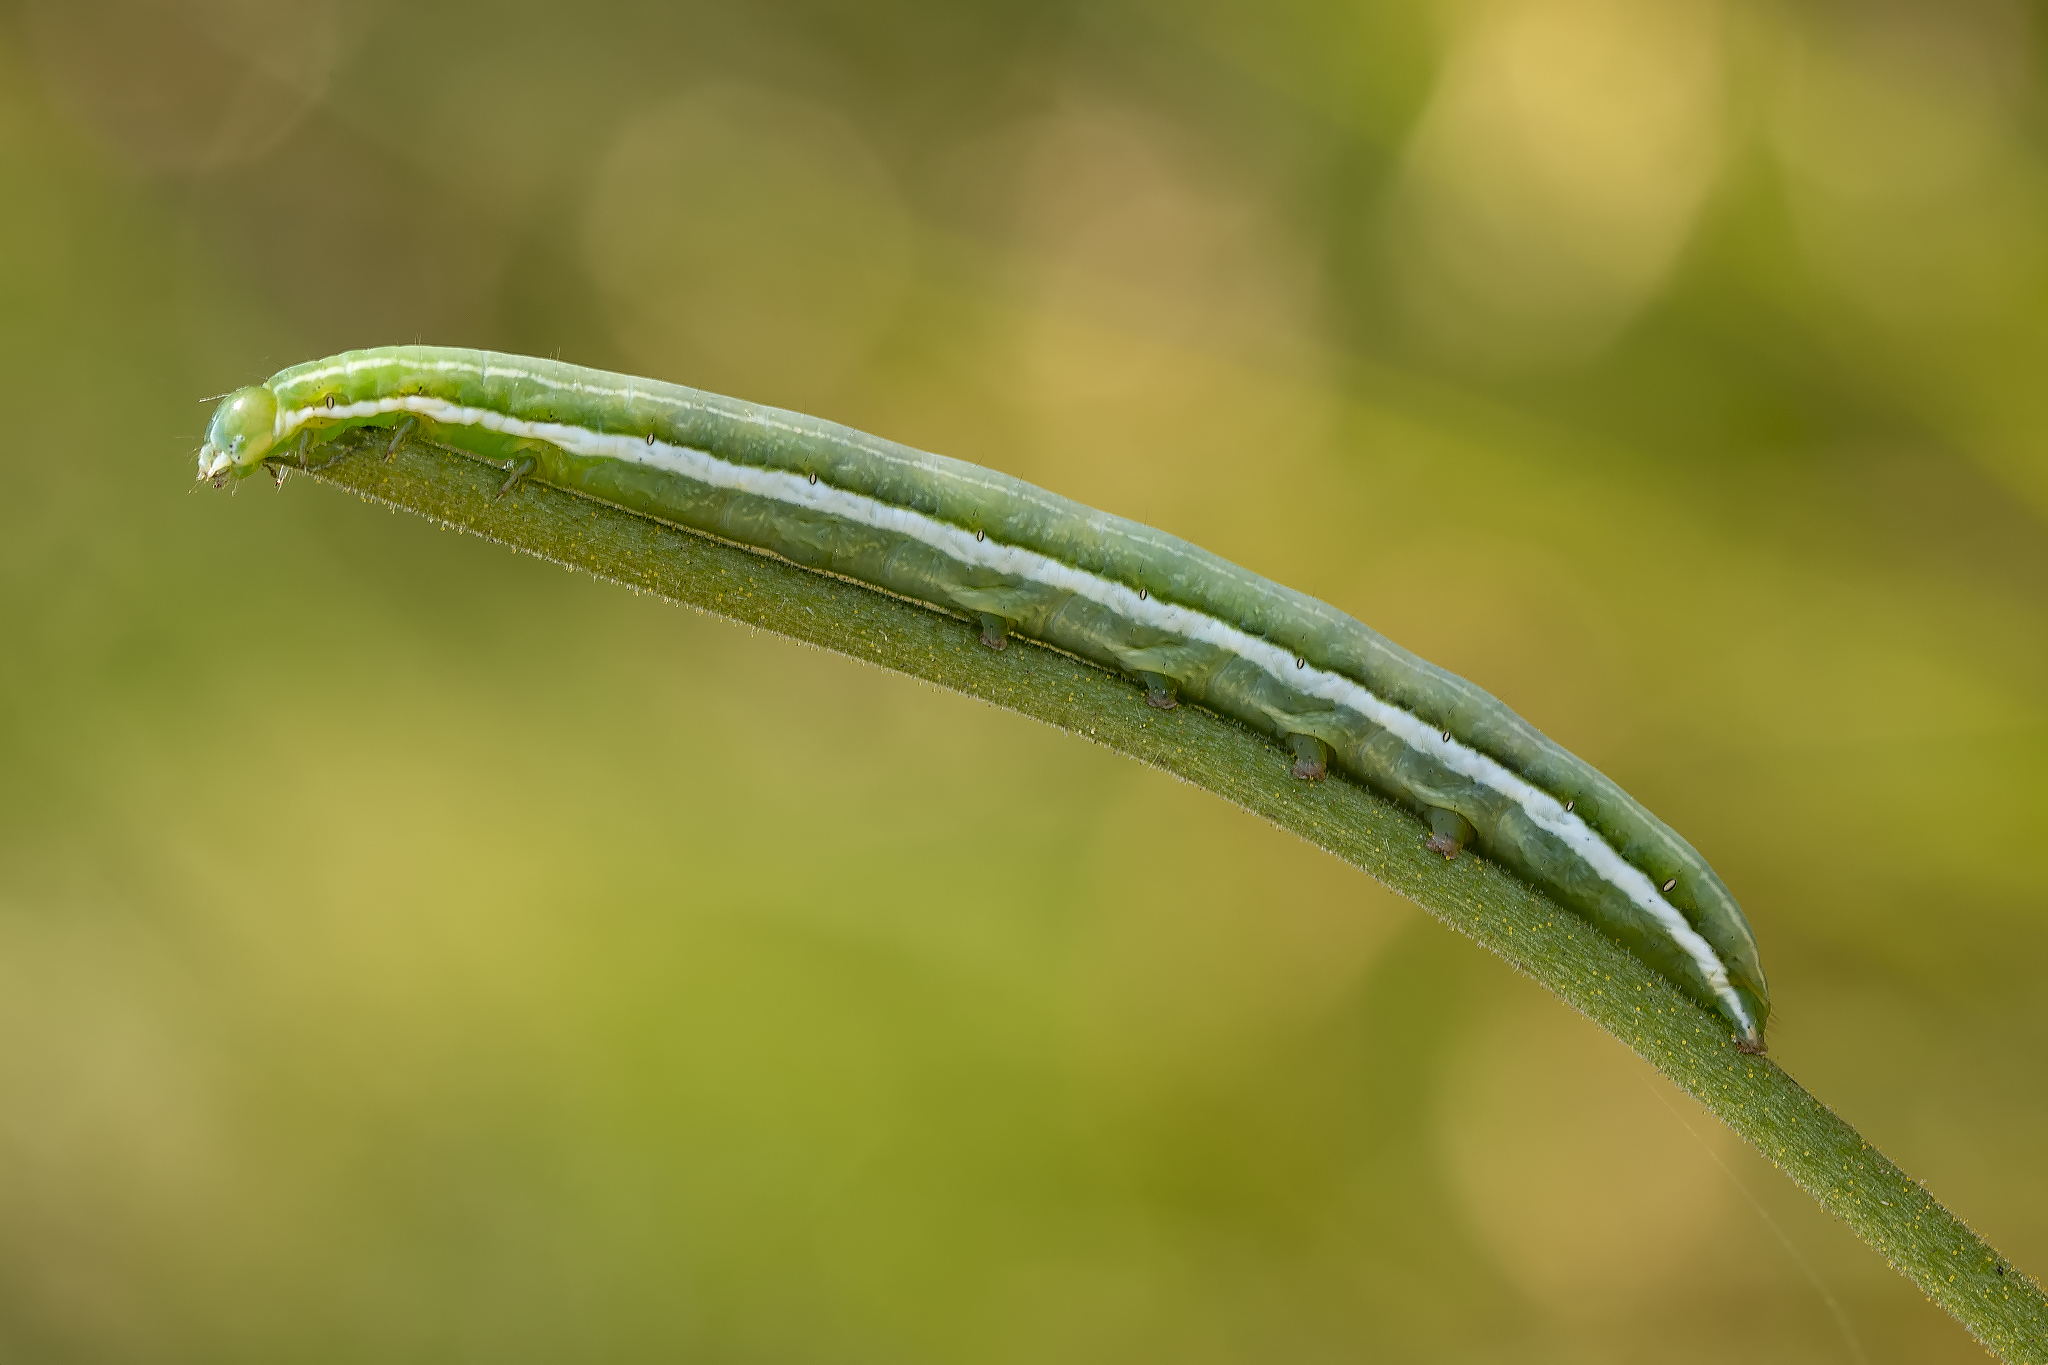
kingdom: Animalia
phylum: Arthropoda
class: Insecta
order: Lepidoptera
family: Pieridae
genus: Anthocharis
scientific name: Anthocharis cardamines
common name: Orange-tip
